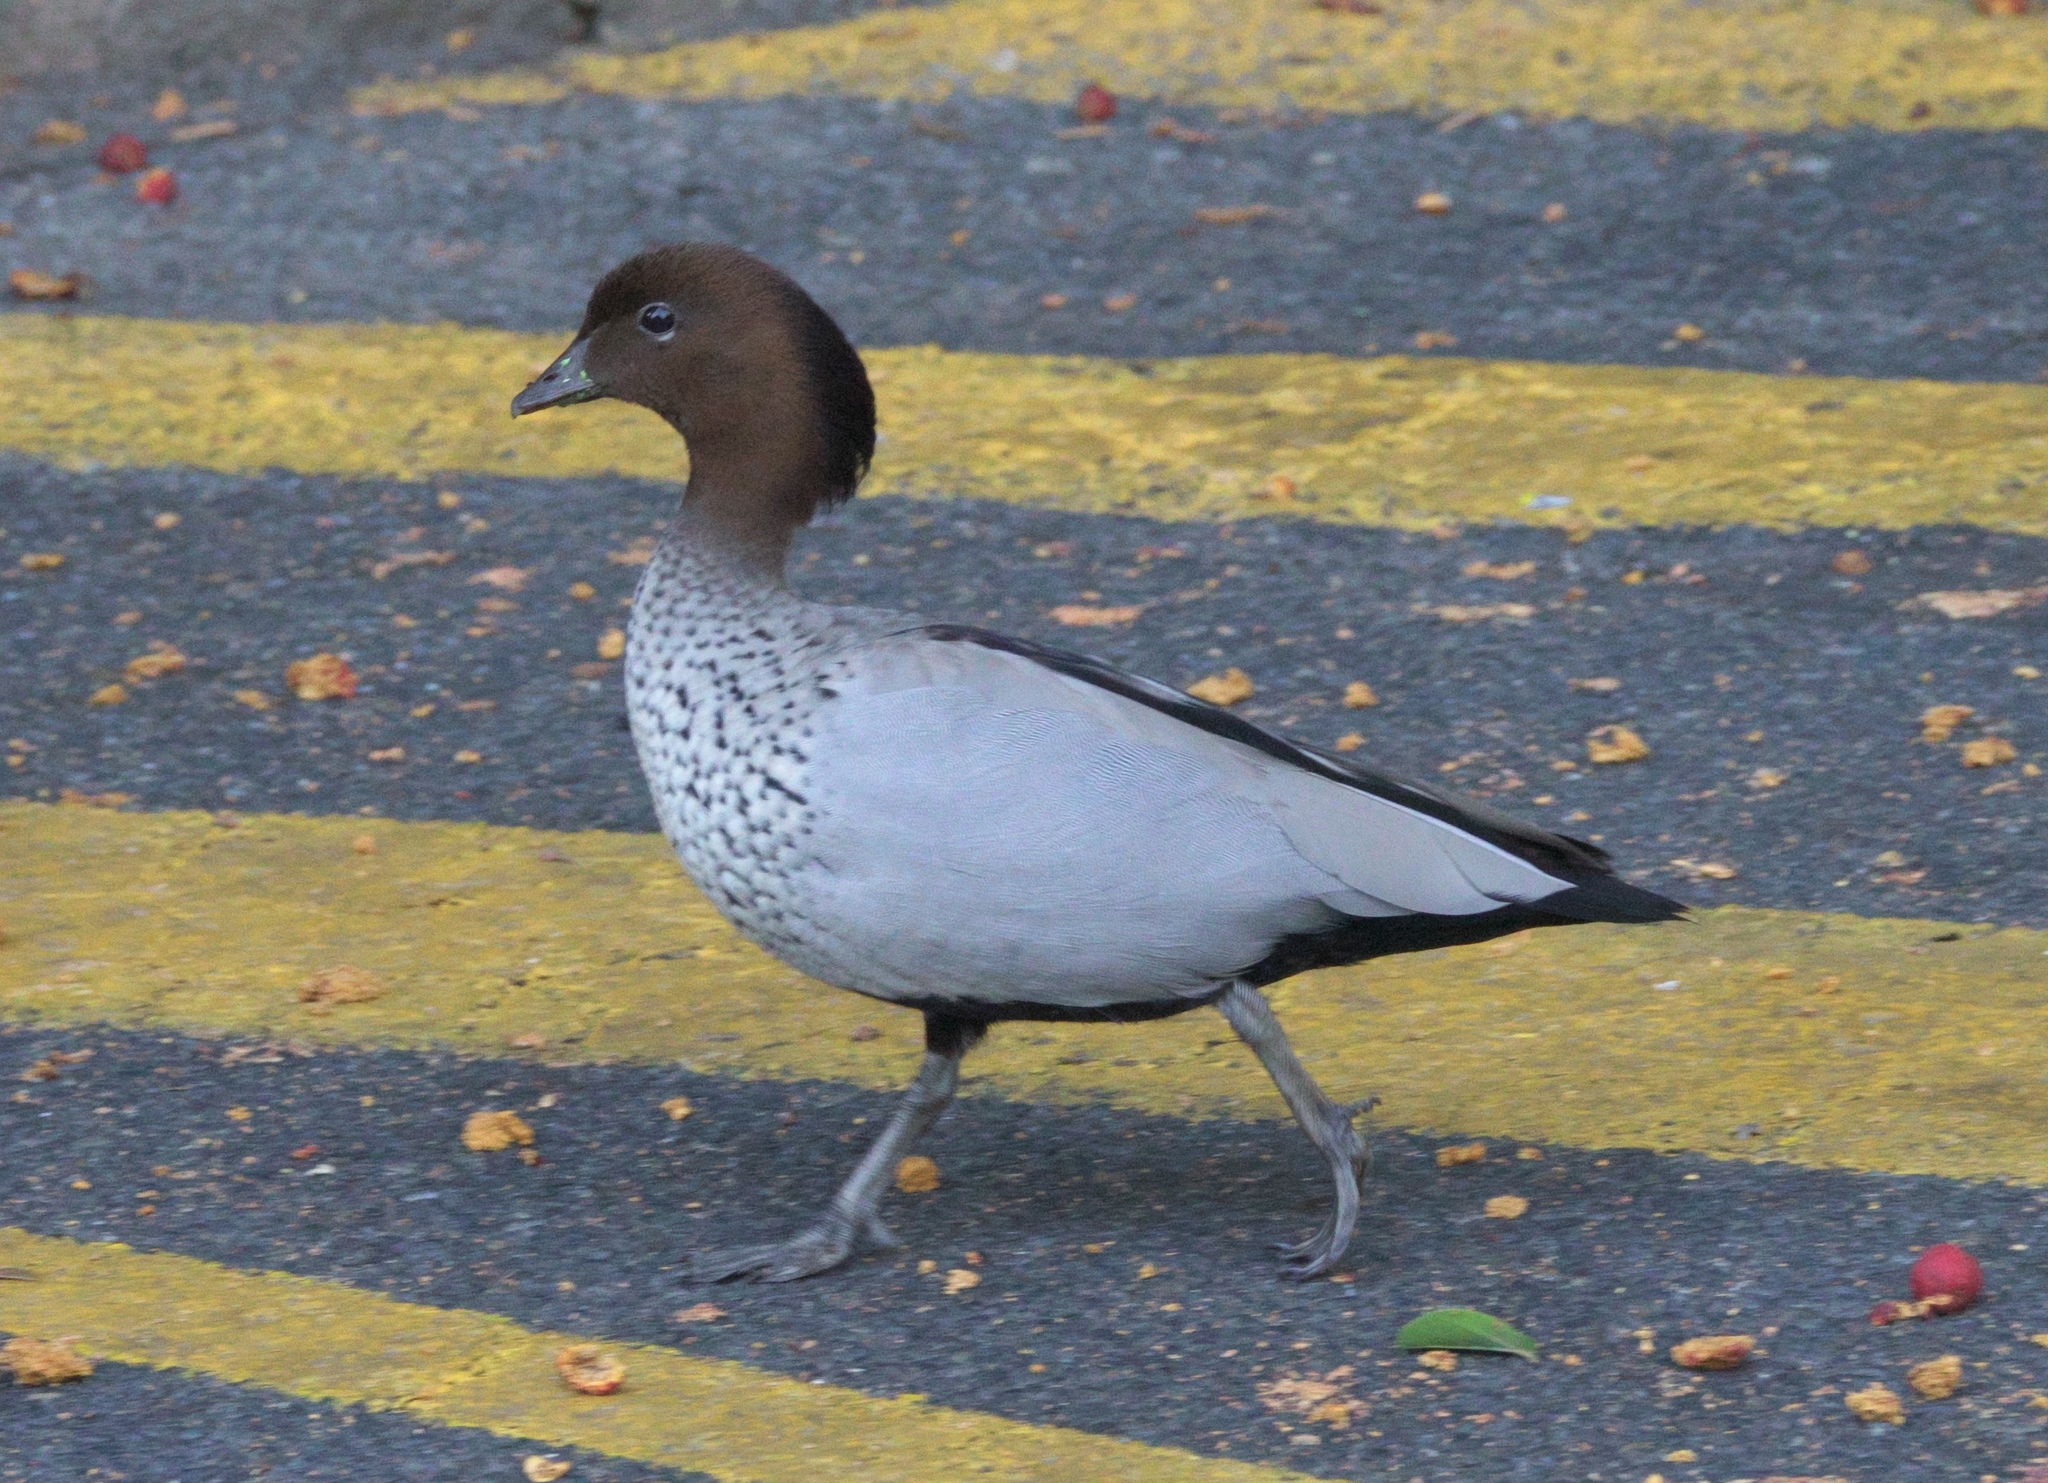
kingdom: Animalia
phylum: Chordata
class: Aves
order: Anseriformes
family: Anatidae
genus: Chenonetta
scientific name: Chenonetta jubata
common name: Maned duck
